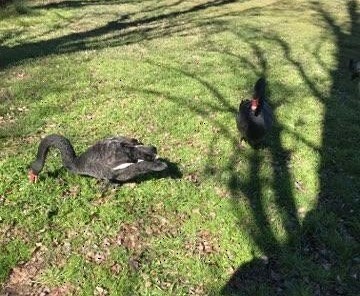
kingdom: Animalia
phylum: Chordata
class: Aves
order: Anseriformes
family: Anatidae
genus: Cygnus
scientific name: Cygnus atratus
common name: Black swan
